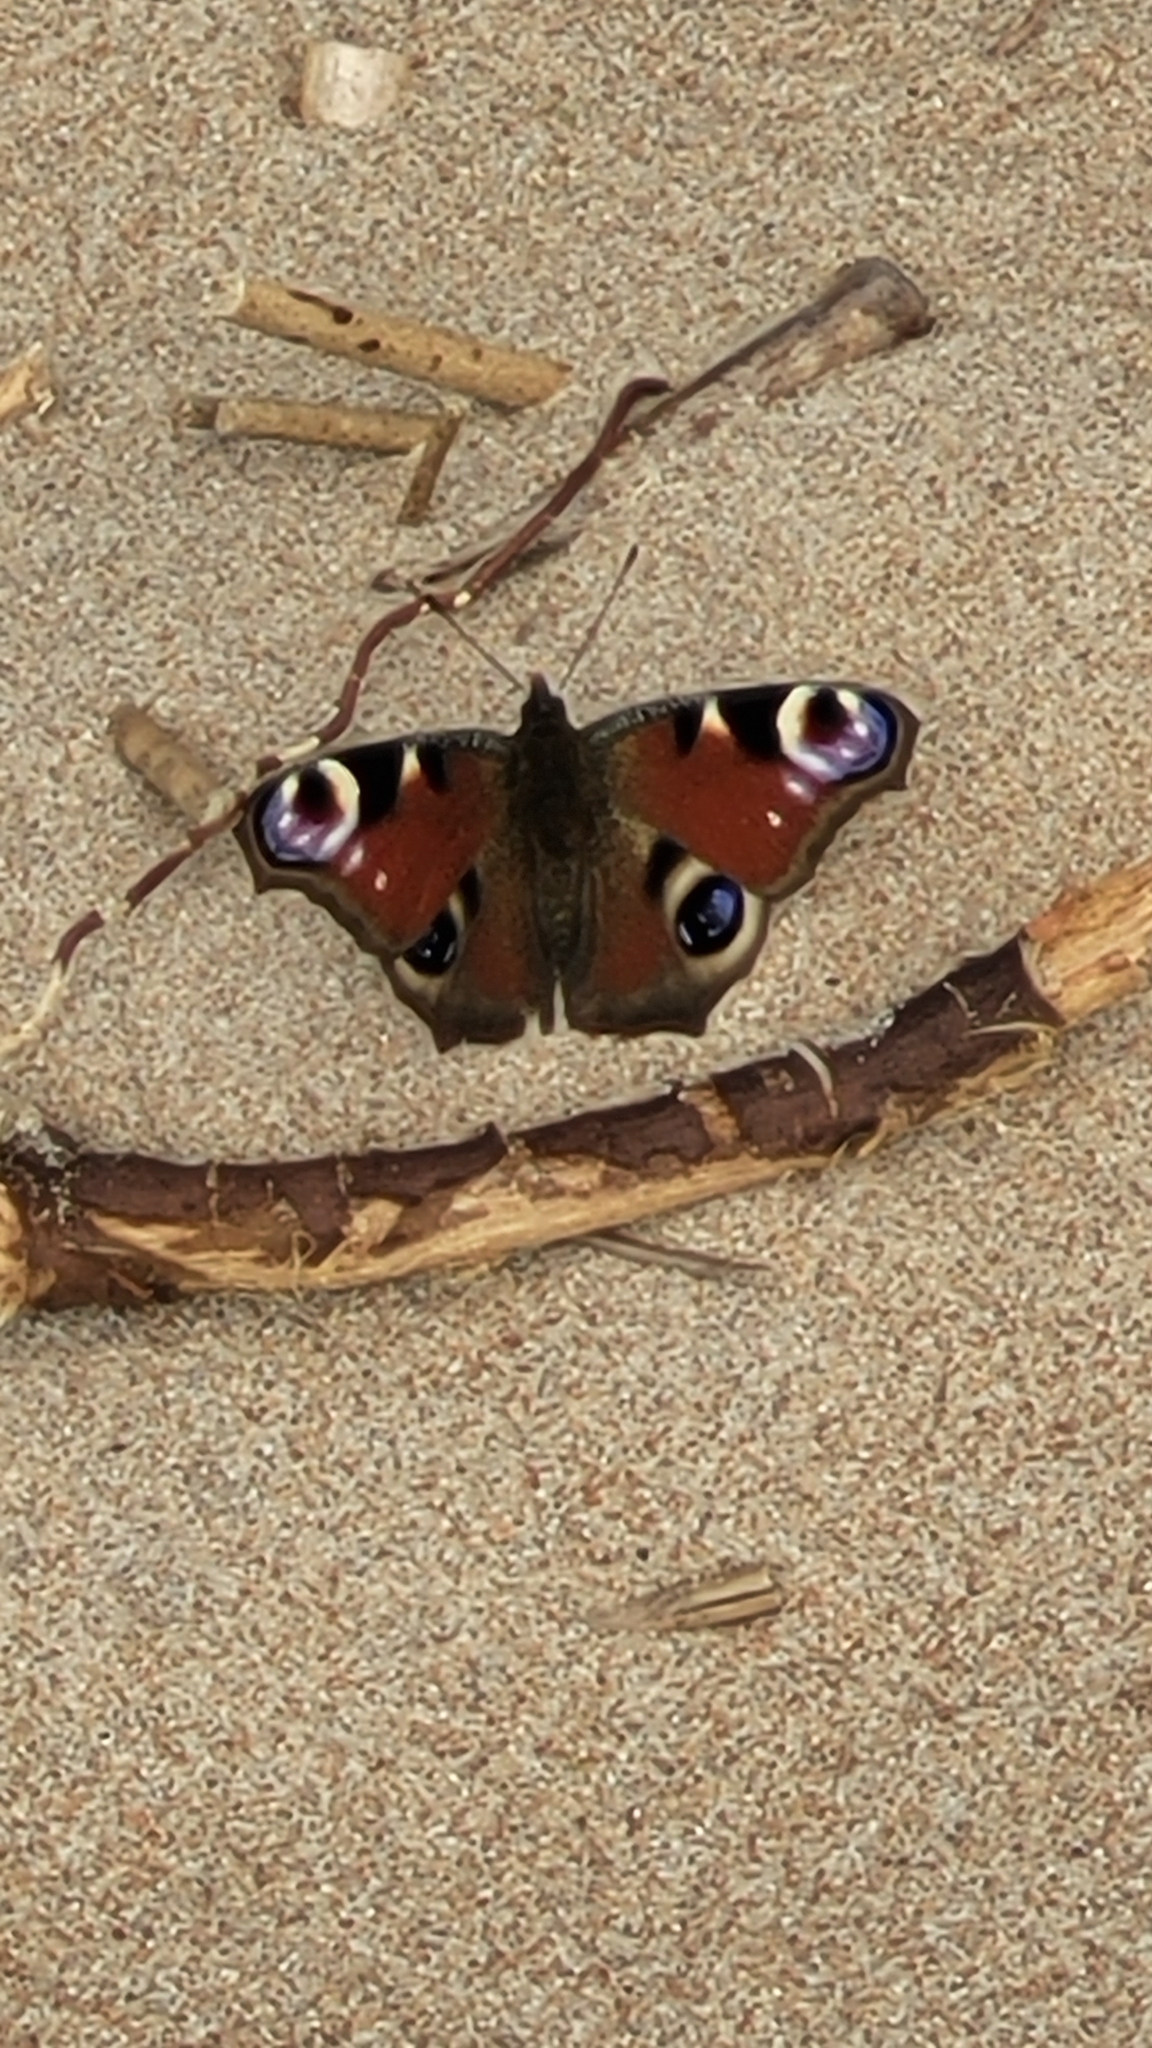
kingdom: Animalia
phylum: Arthropoda
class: Insecta
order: Lepidoptera
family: Nymphalidae
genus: Aglais
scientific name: Aglais io
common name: Peacock
